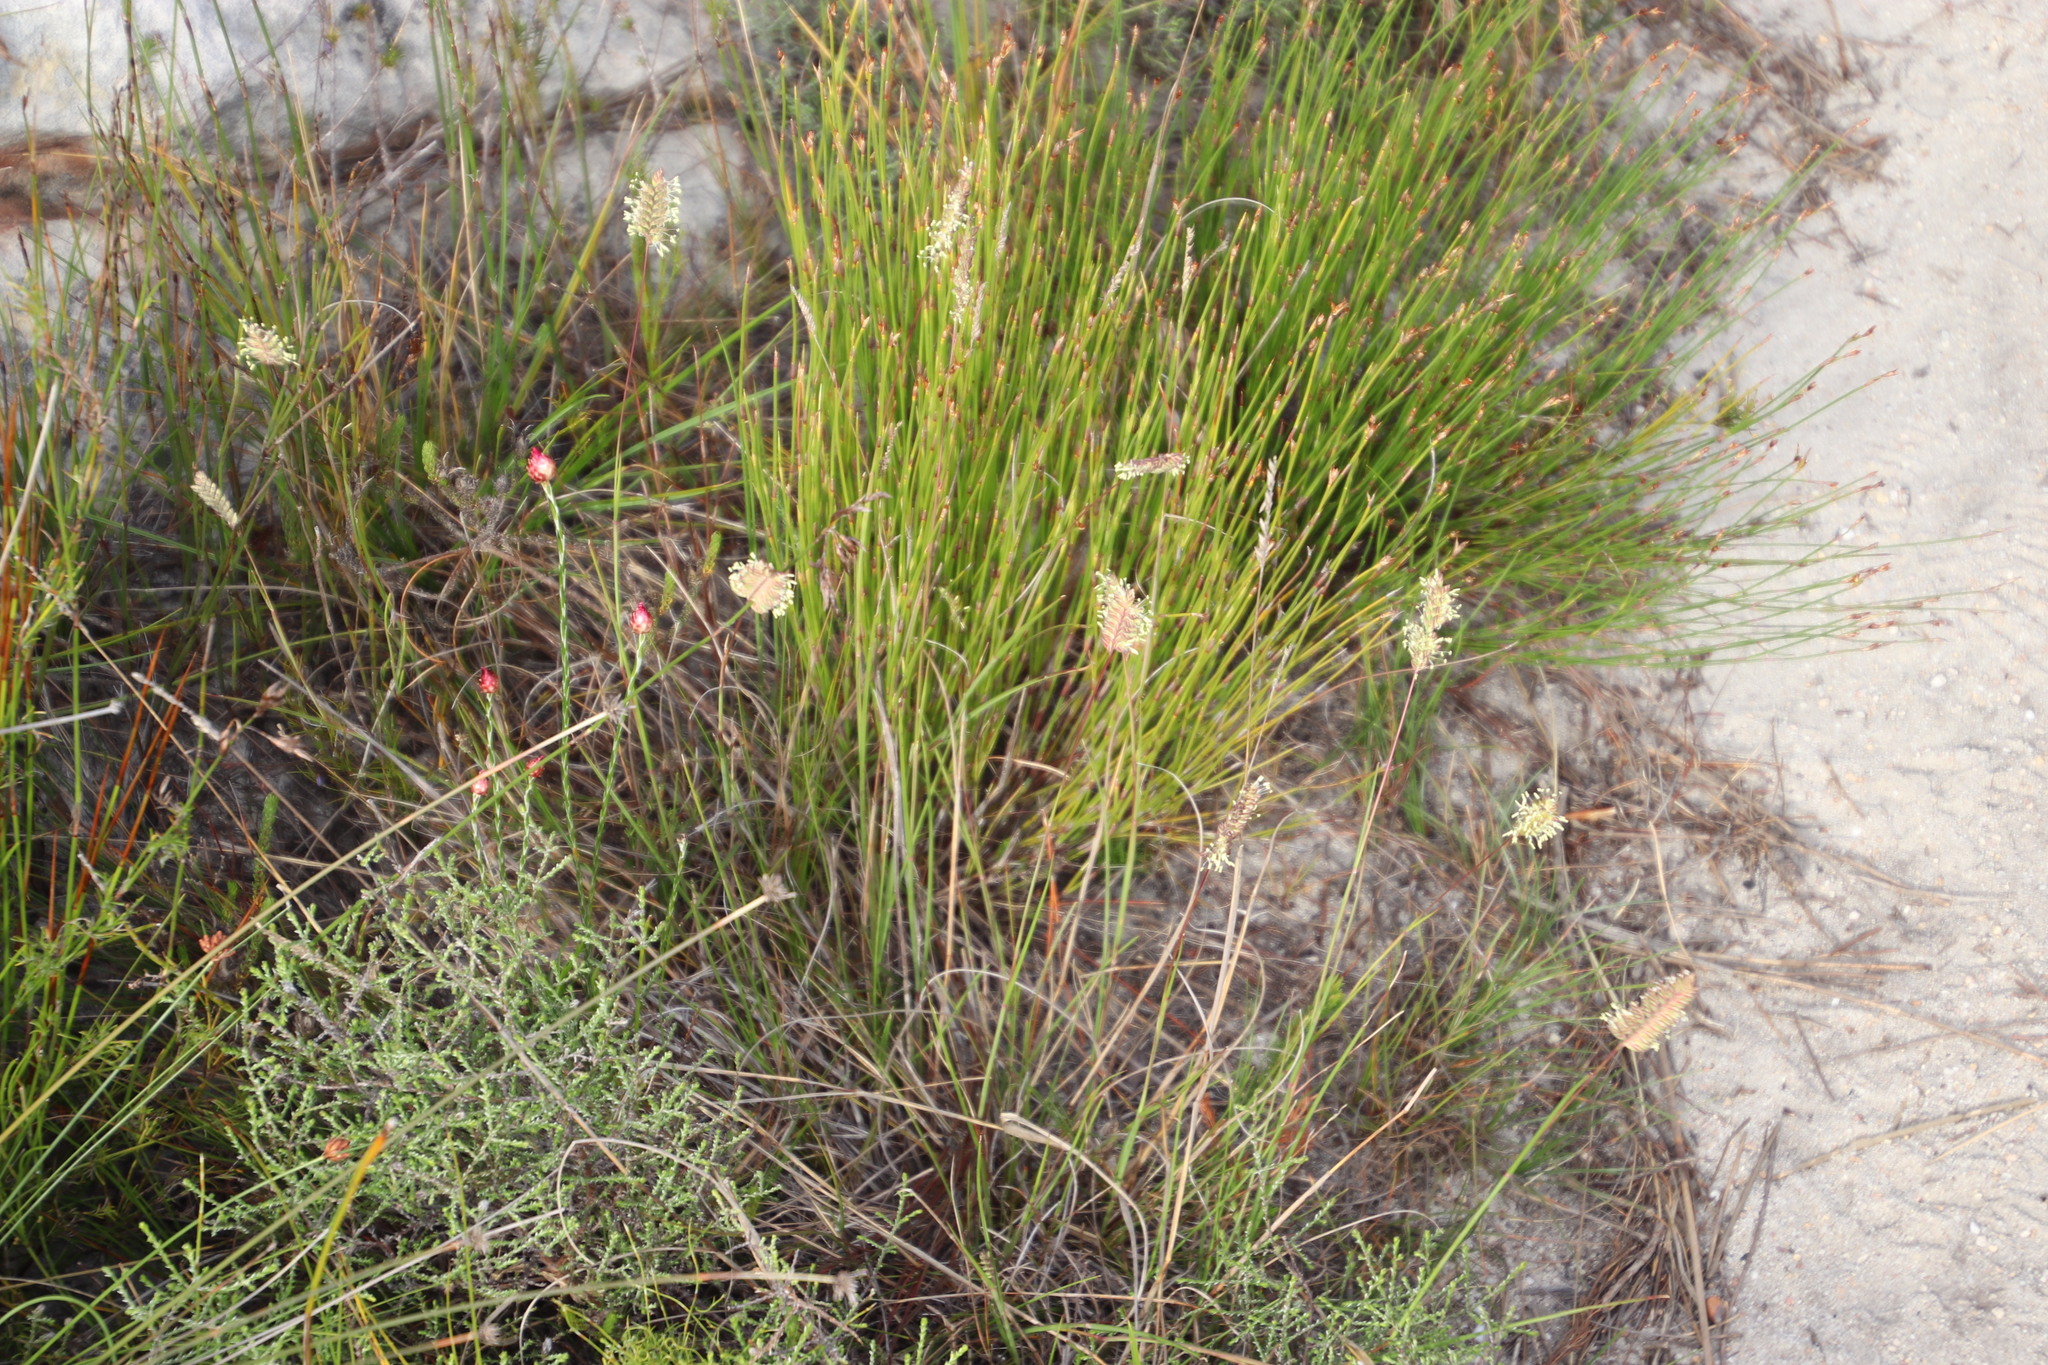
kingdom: Plantae
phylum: Tracheophyta
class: Liliopsida
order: Poales
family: Poaceae
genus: Tribolium
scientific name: Tribolium uniolae
